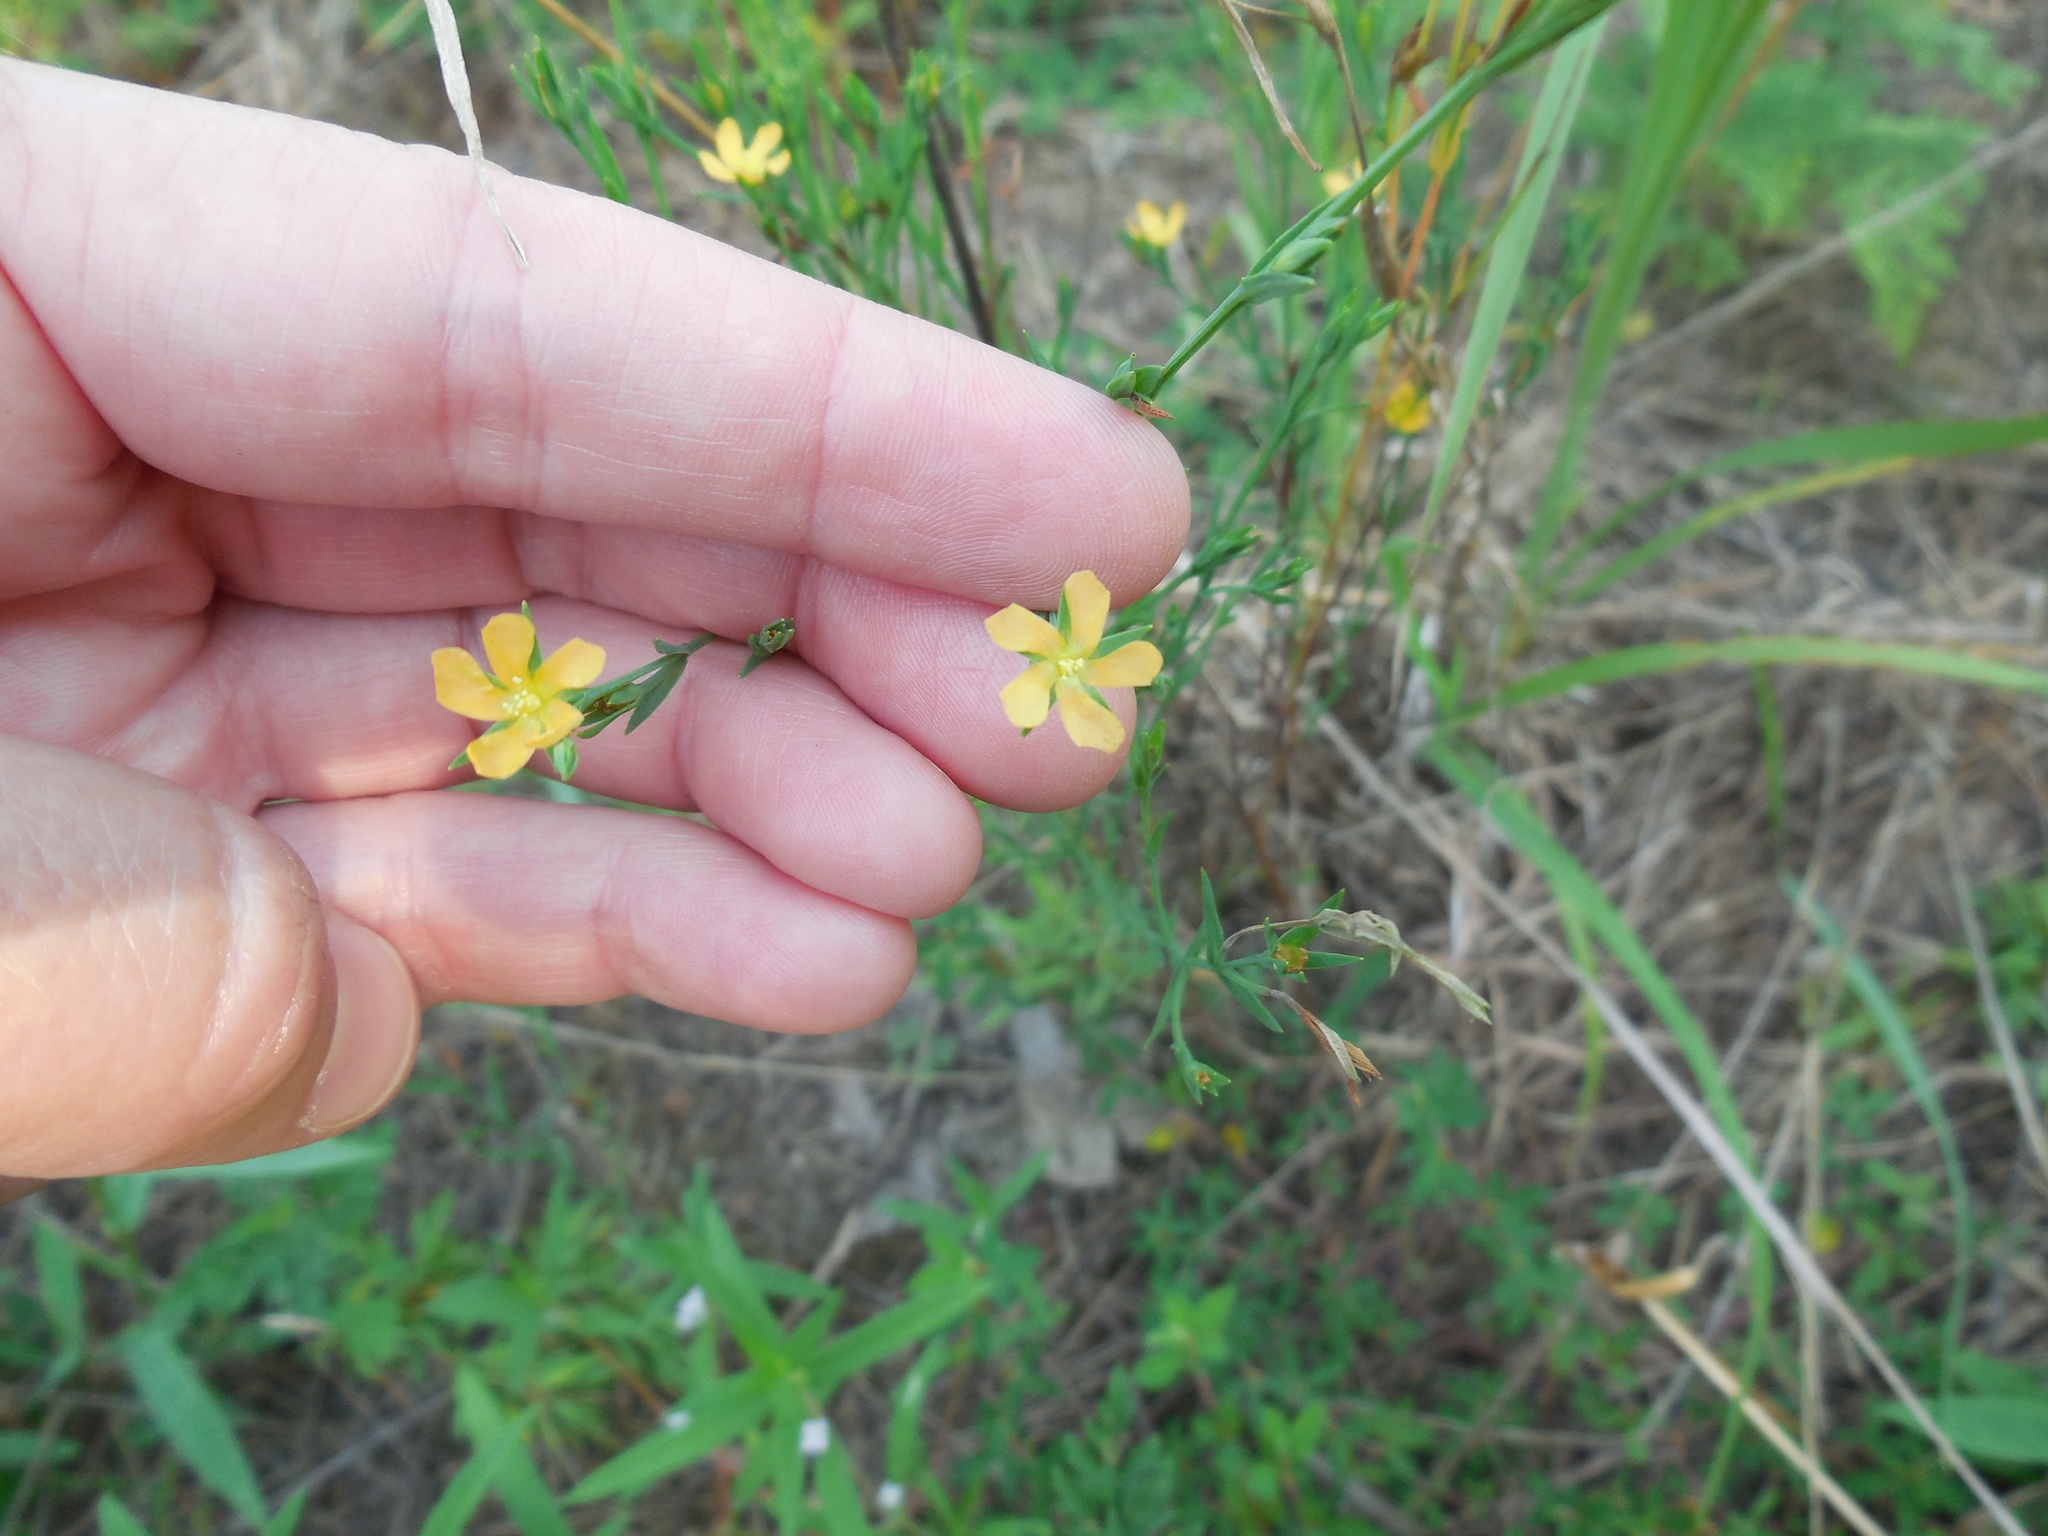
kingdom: Plantae
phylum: Tracheophyta
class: Magnoliopsida
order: Malpighiales
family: Hypericaceae
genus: Hypericum
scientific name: Hypericum drummondii
